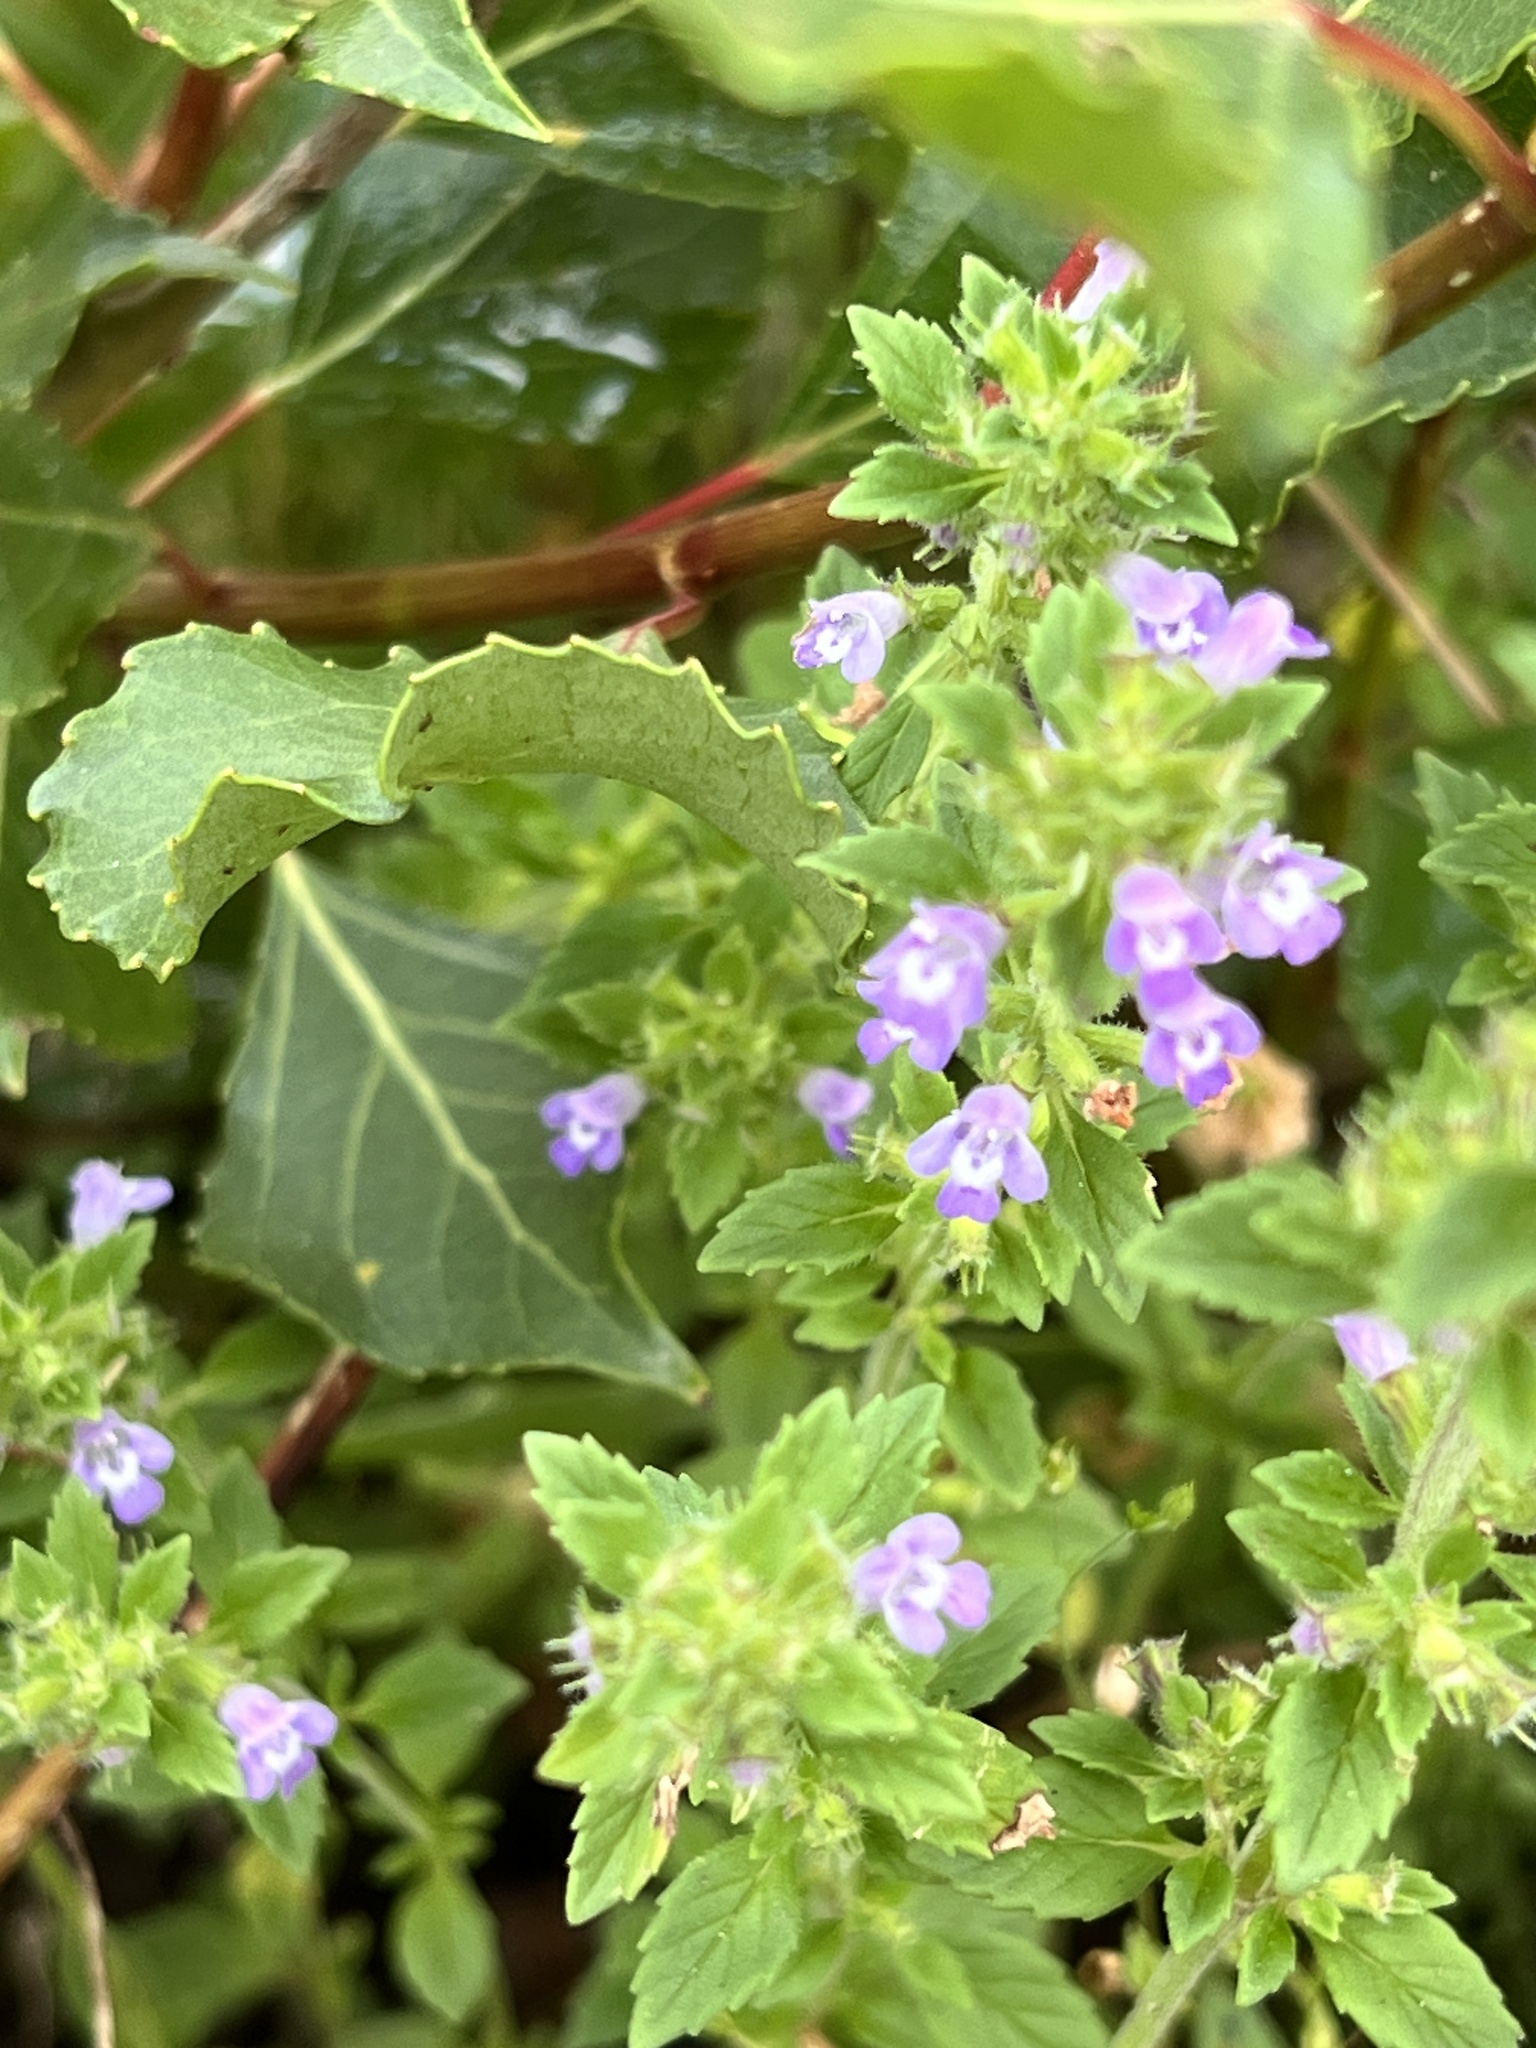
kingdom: Plantae
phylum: Tracheophyta
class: Magnoliopsida
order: Lamiales
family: Lamiaceae
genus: Clinopodium
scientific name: Clinopodium acinos
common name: Basil thyme
